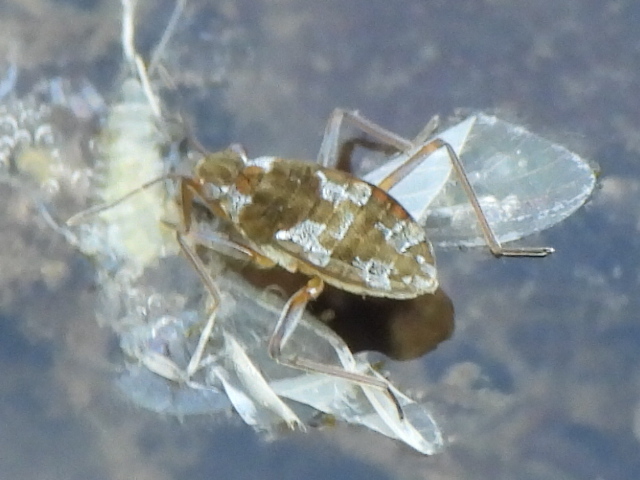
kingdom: Animalia
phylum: Arthropoda
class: Insecta
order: Hemiptera
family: Veliidae
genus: Microvelia
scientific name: Microvelia americana
